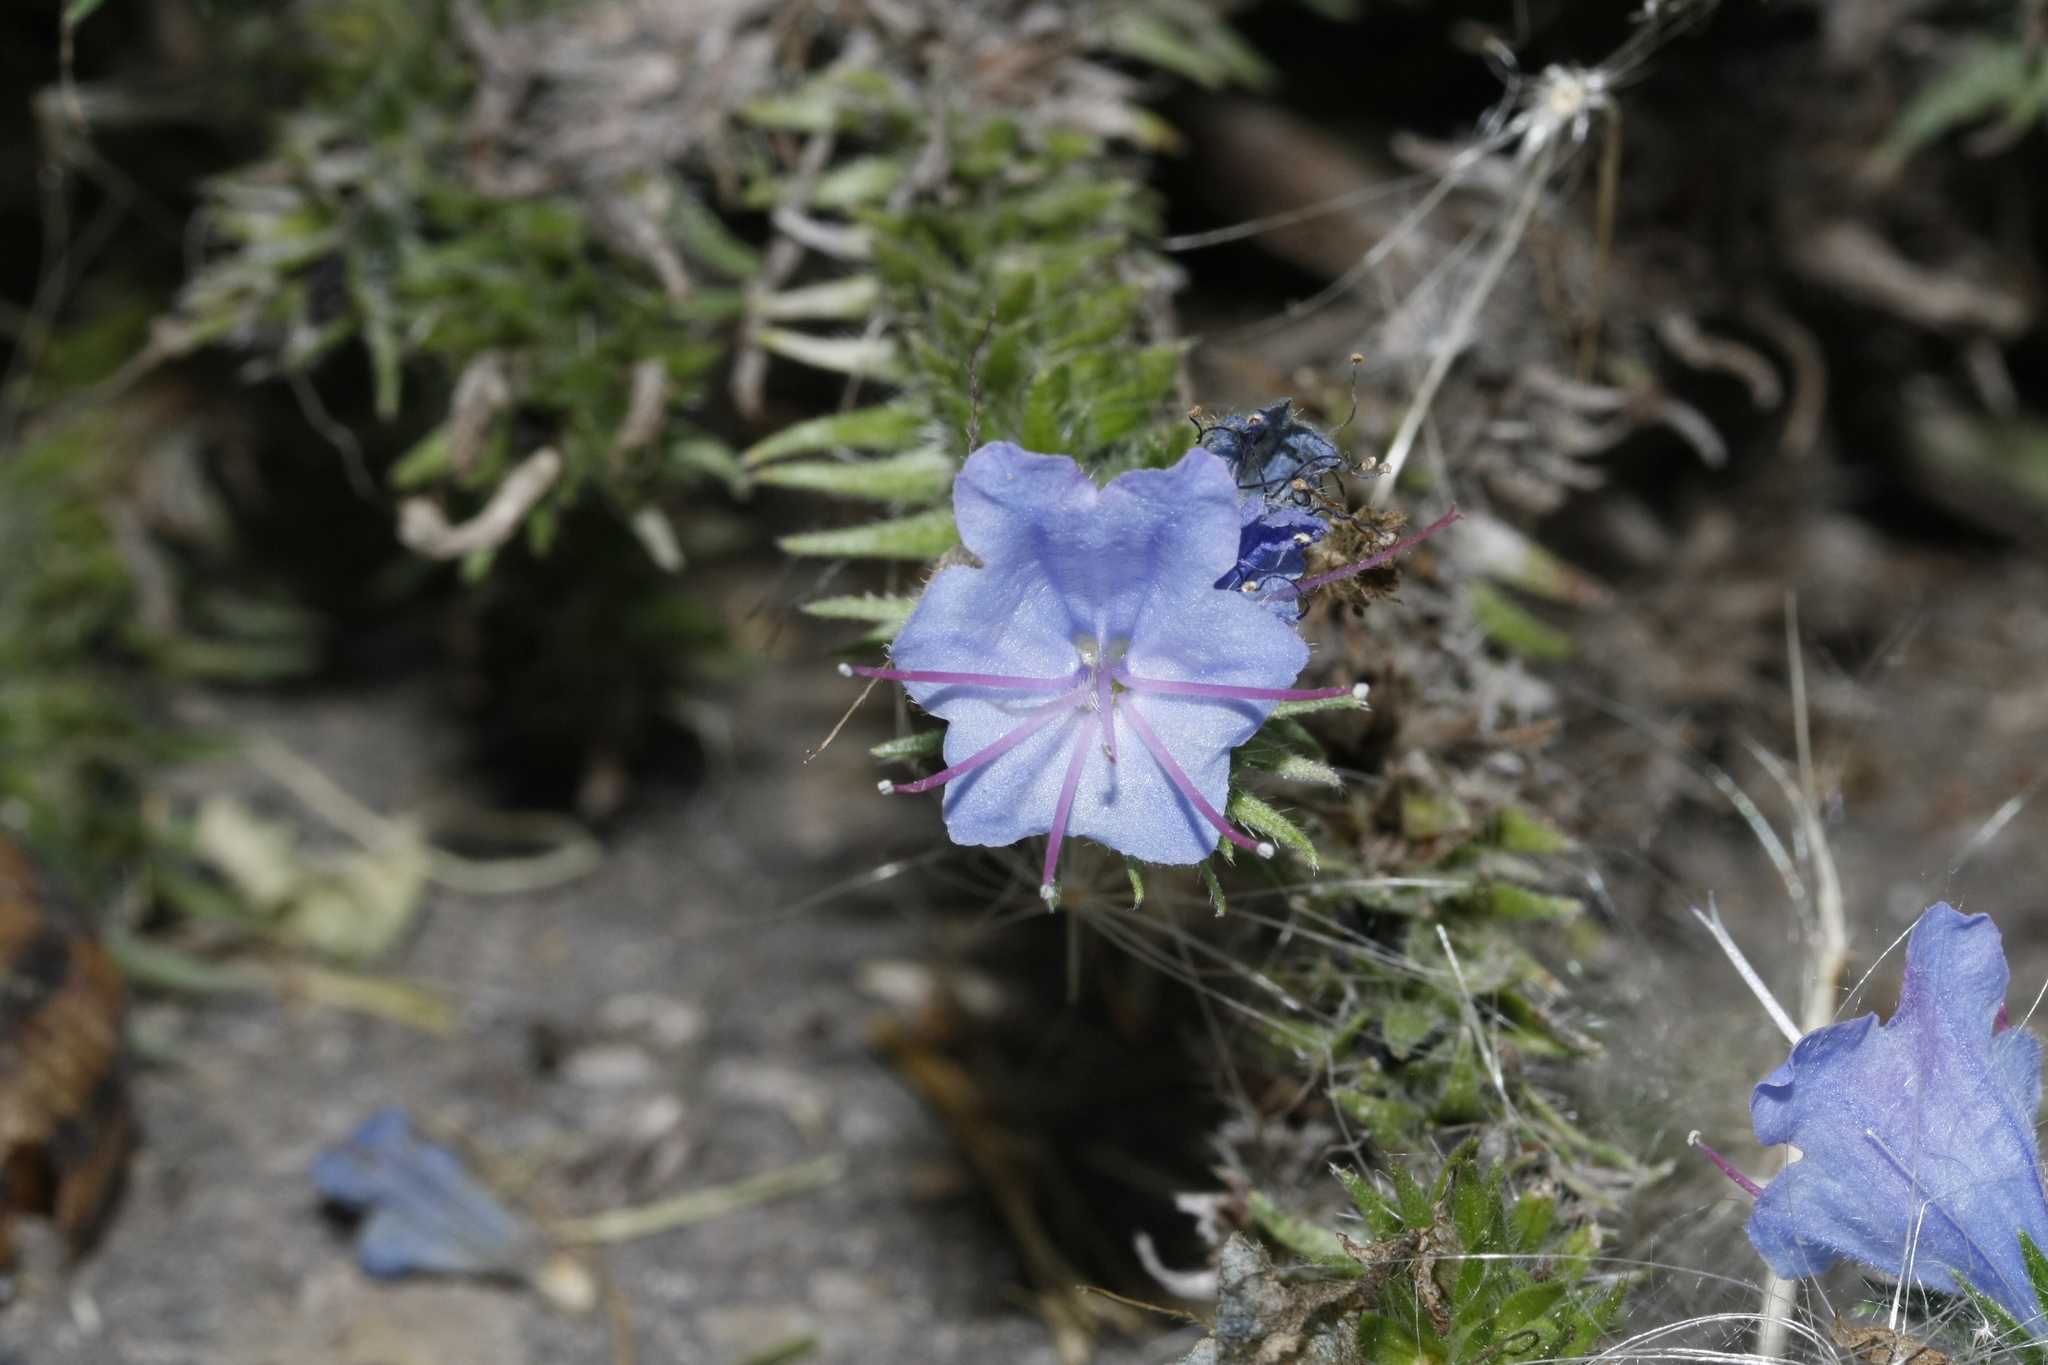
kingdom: Plantae
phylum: Tracheophyta
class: Magnoliopsida
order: Boraginales
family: Boraginaceae
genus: Echium
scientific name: Echium vulgare
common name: Common viper's bugloss
